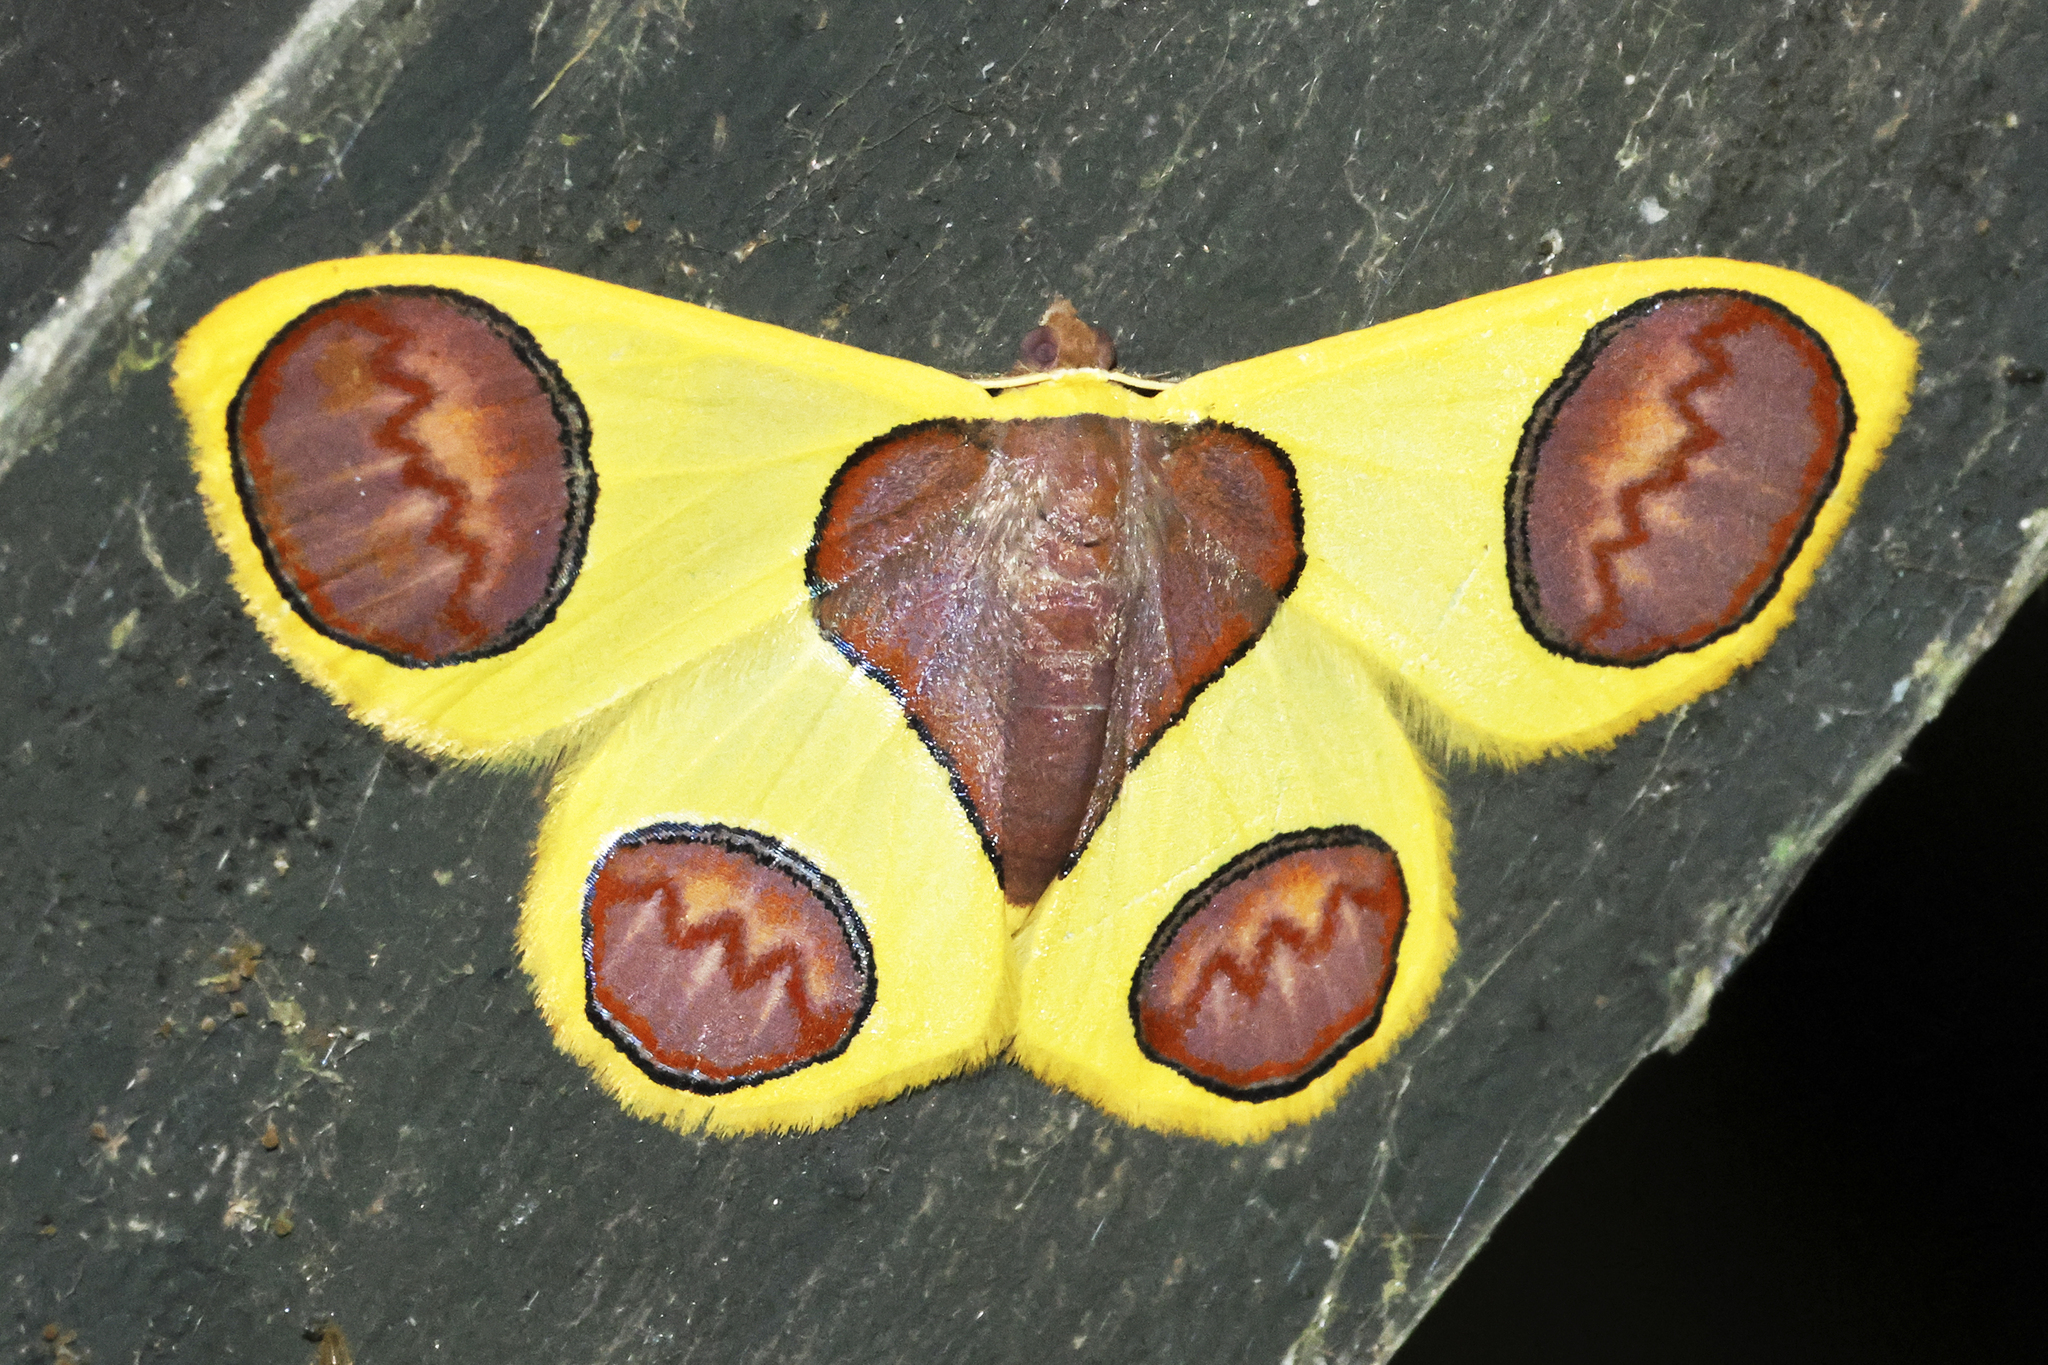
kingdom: Animalia
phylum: Arthropoda
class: Insecta
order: Lepidoptera
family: Geometridae
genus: Plutodes
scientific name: Plutodes flavescens
